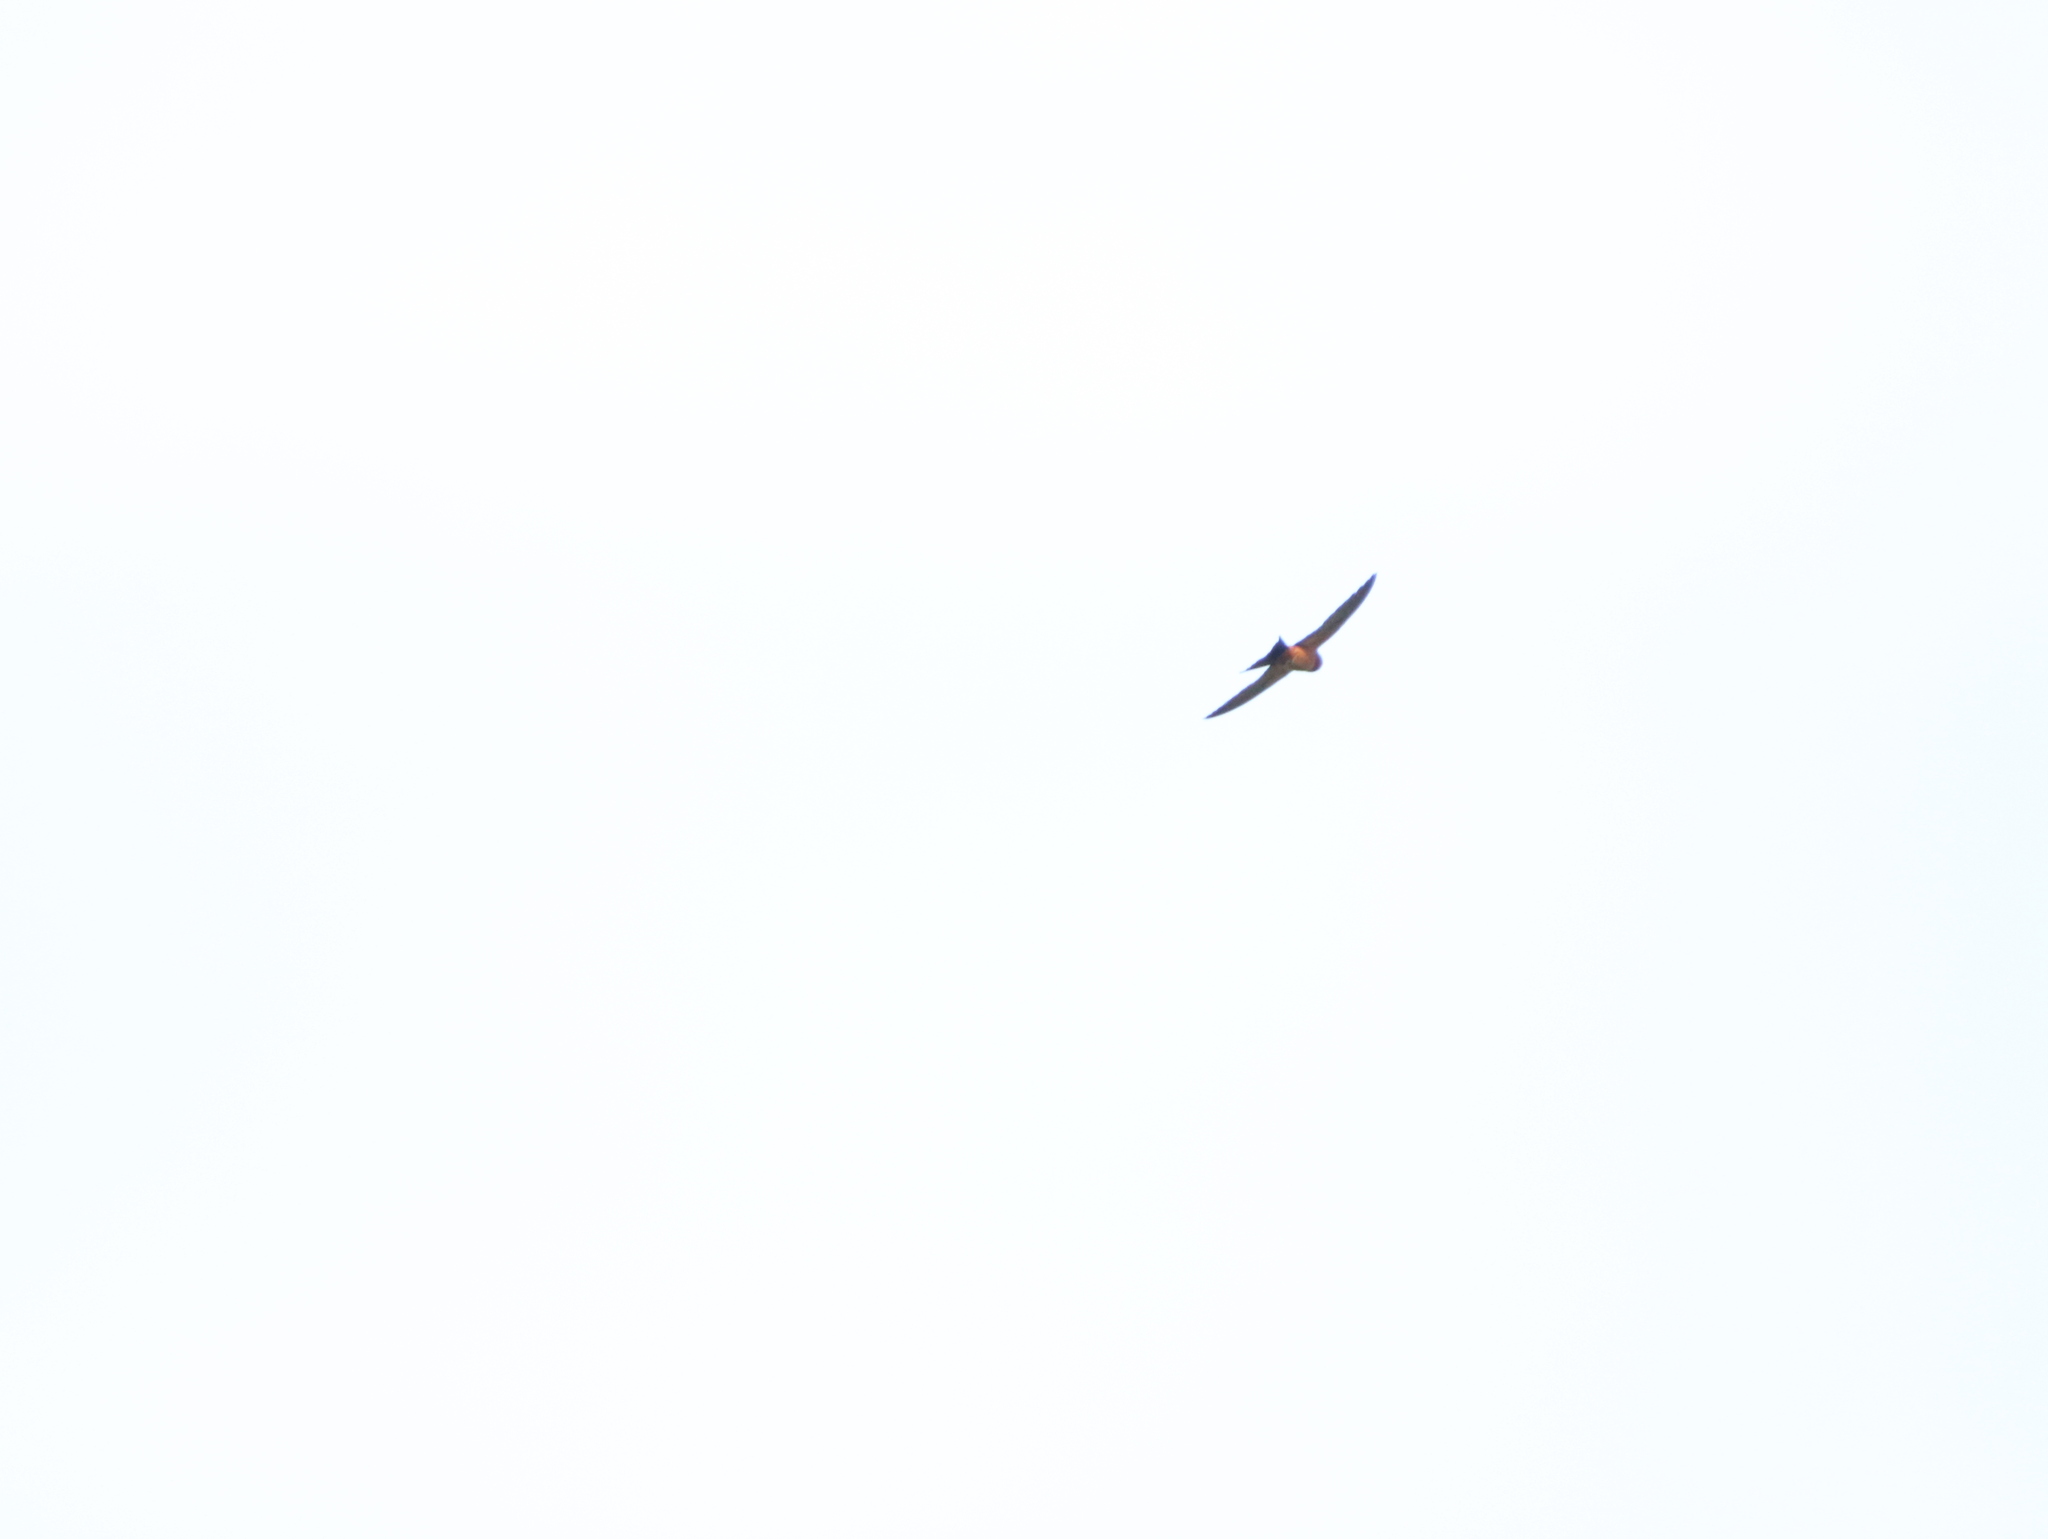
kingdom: Animalia
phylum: Chordata
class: Aves
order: Passeriformes
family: Hirundinidae
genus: Cecropis
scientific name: Cecropis hyperythra
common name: Sri lanka swallow
